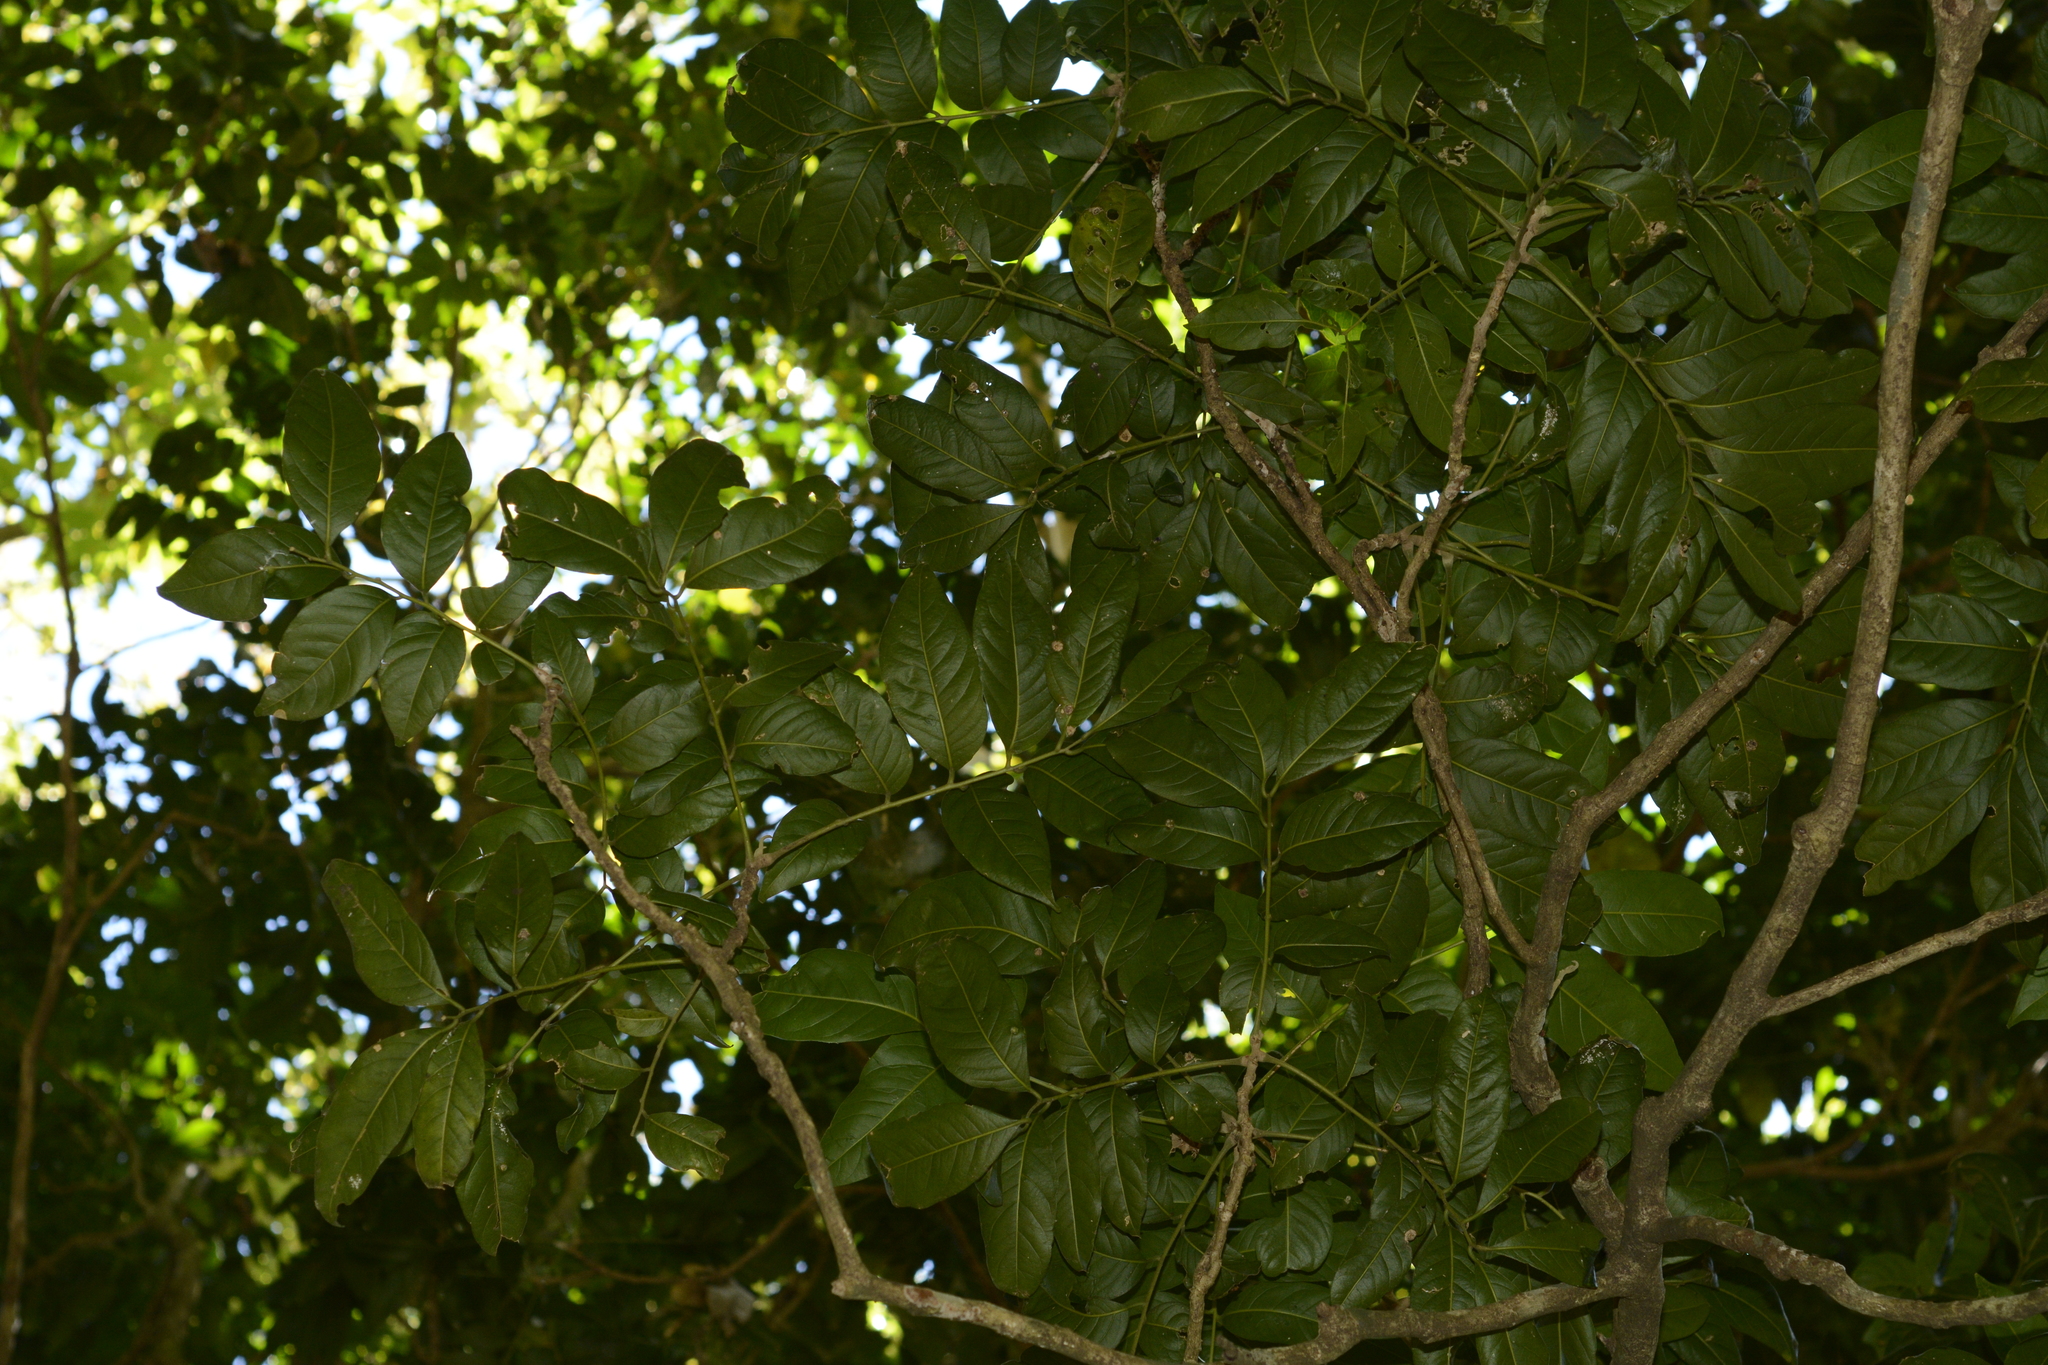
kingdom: Plantae
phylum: Tracheophyta
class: Magnoliopsida
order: Sapindales
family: Meliaceae
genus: Dysoxylum
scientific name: Dysoxylum gotadhora
